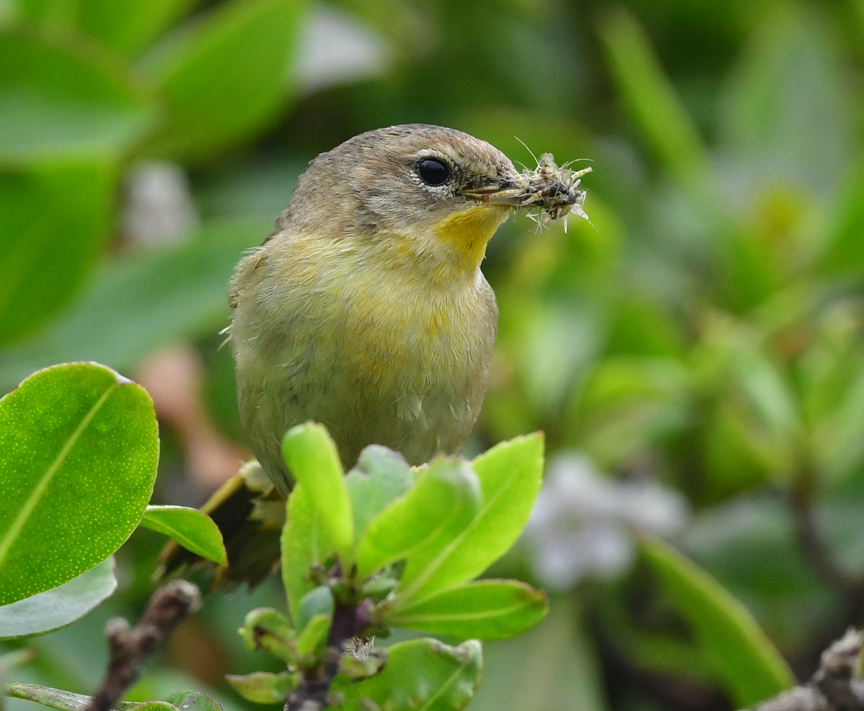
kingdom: Animalia
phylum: Chordata
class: Aves
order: Passeriformes
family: Parulidae
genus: Geothlypis
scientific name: Geothlypis trichas
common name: Common yellowthroat
